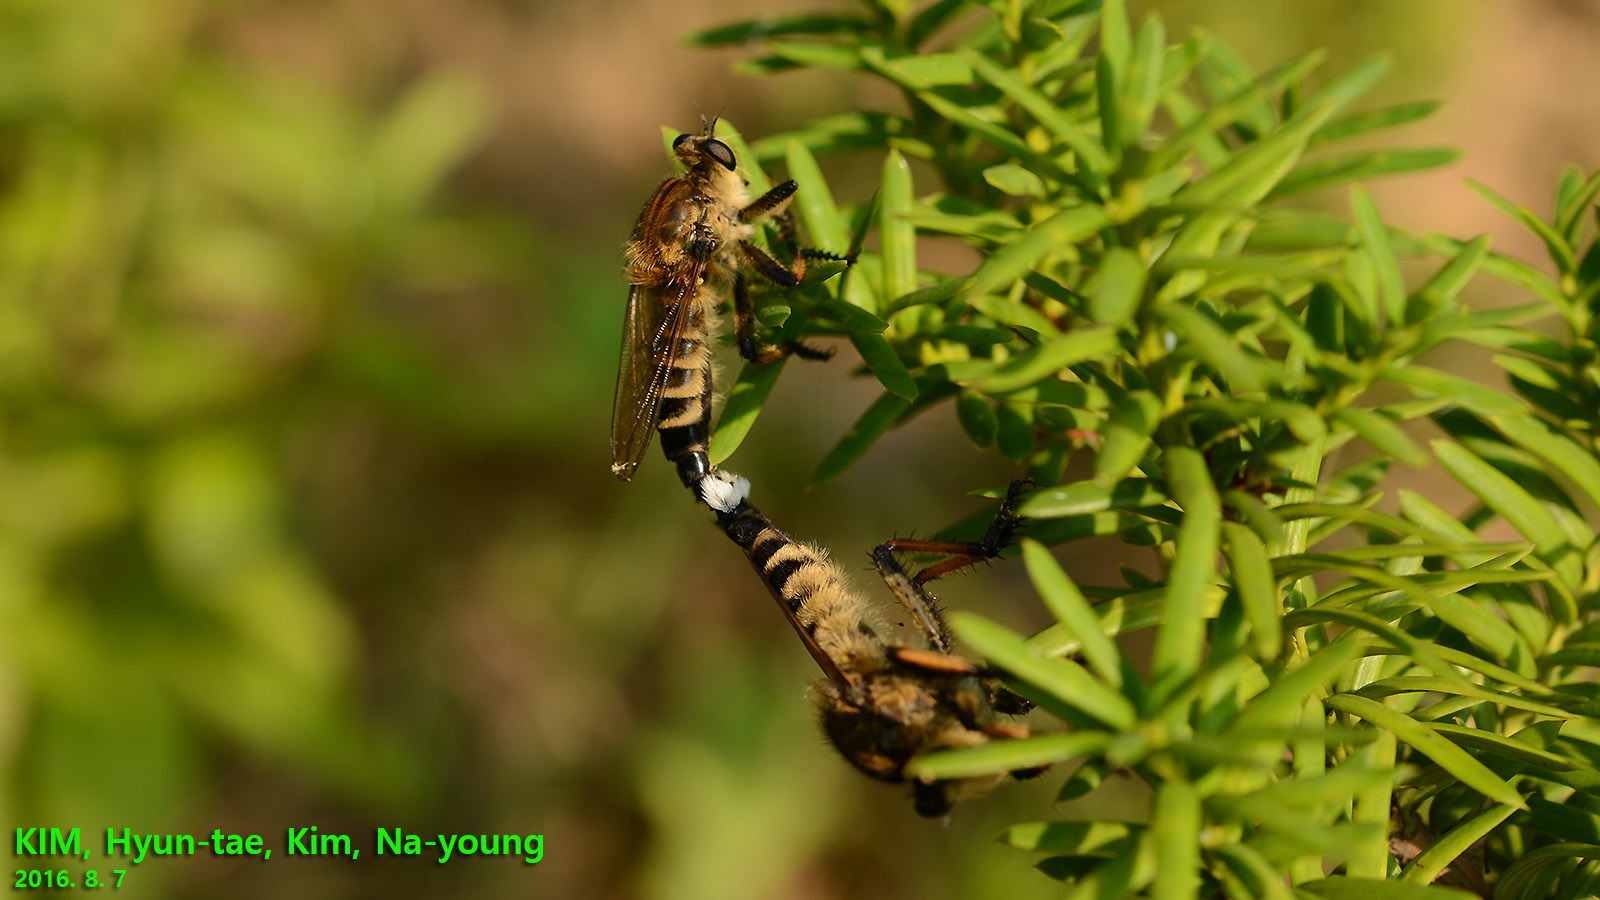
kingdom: Animalia
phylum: Arthropoda
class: Insecta
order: Diptera
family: Asilidae
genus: Promachus
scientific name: Promachus yesonicus
